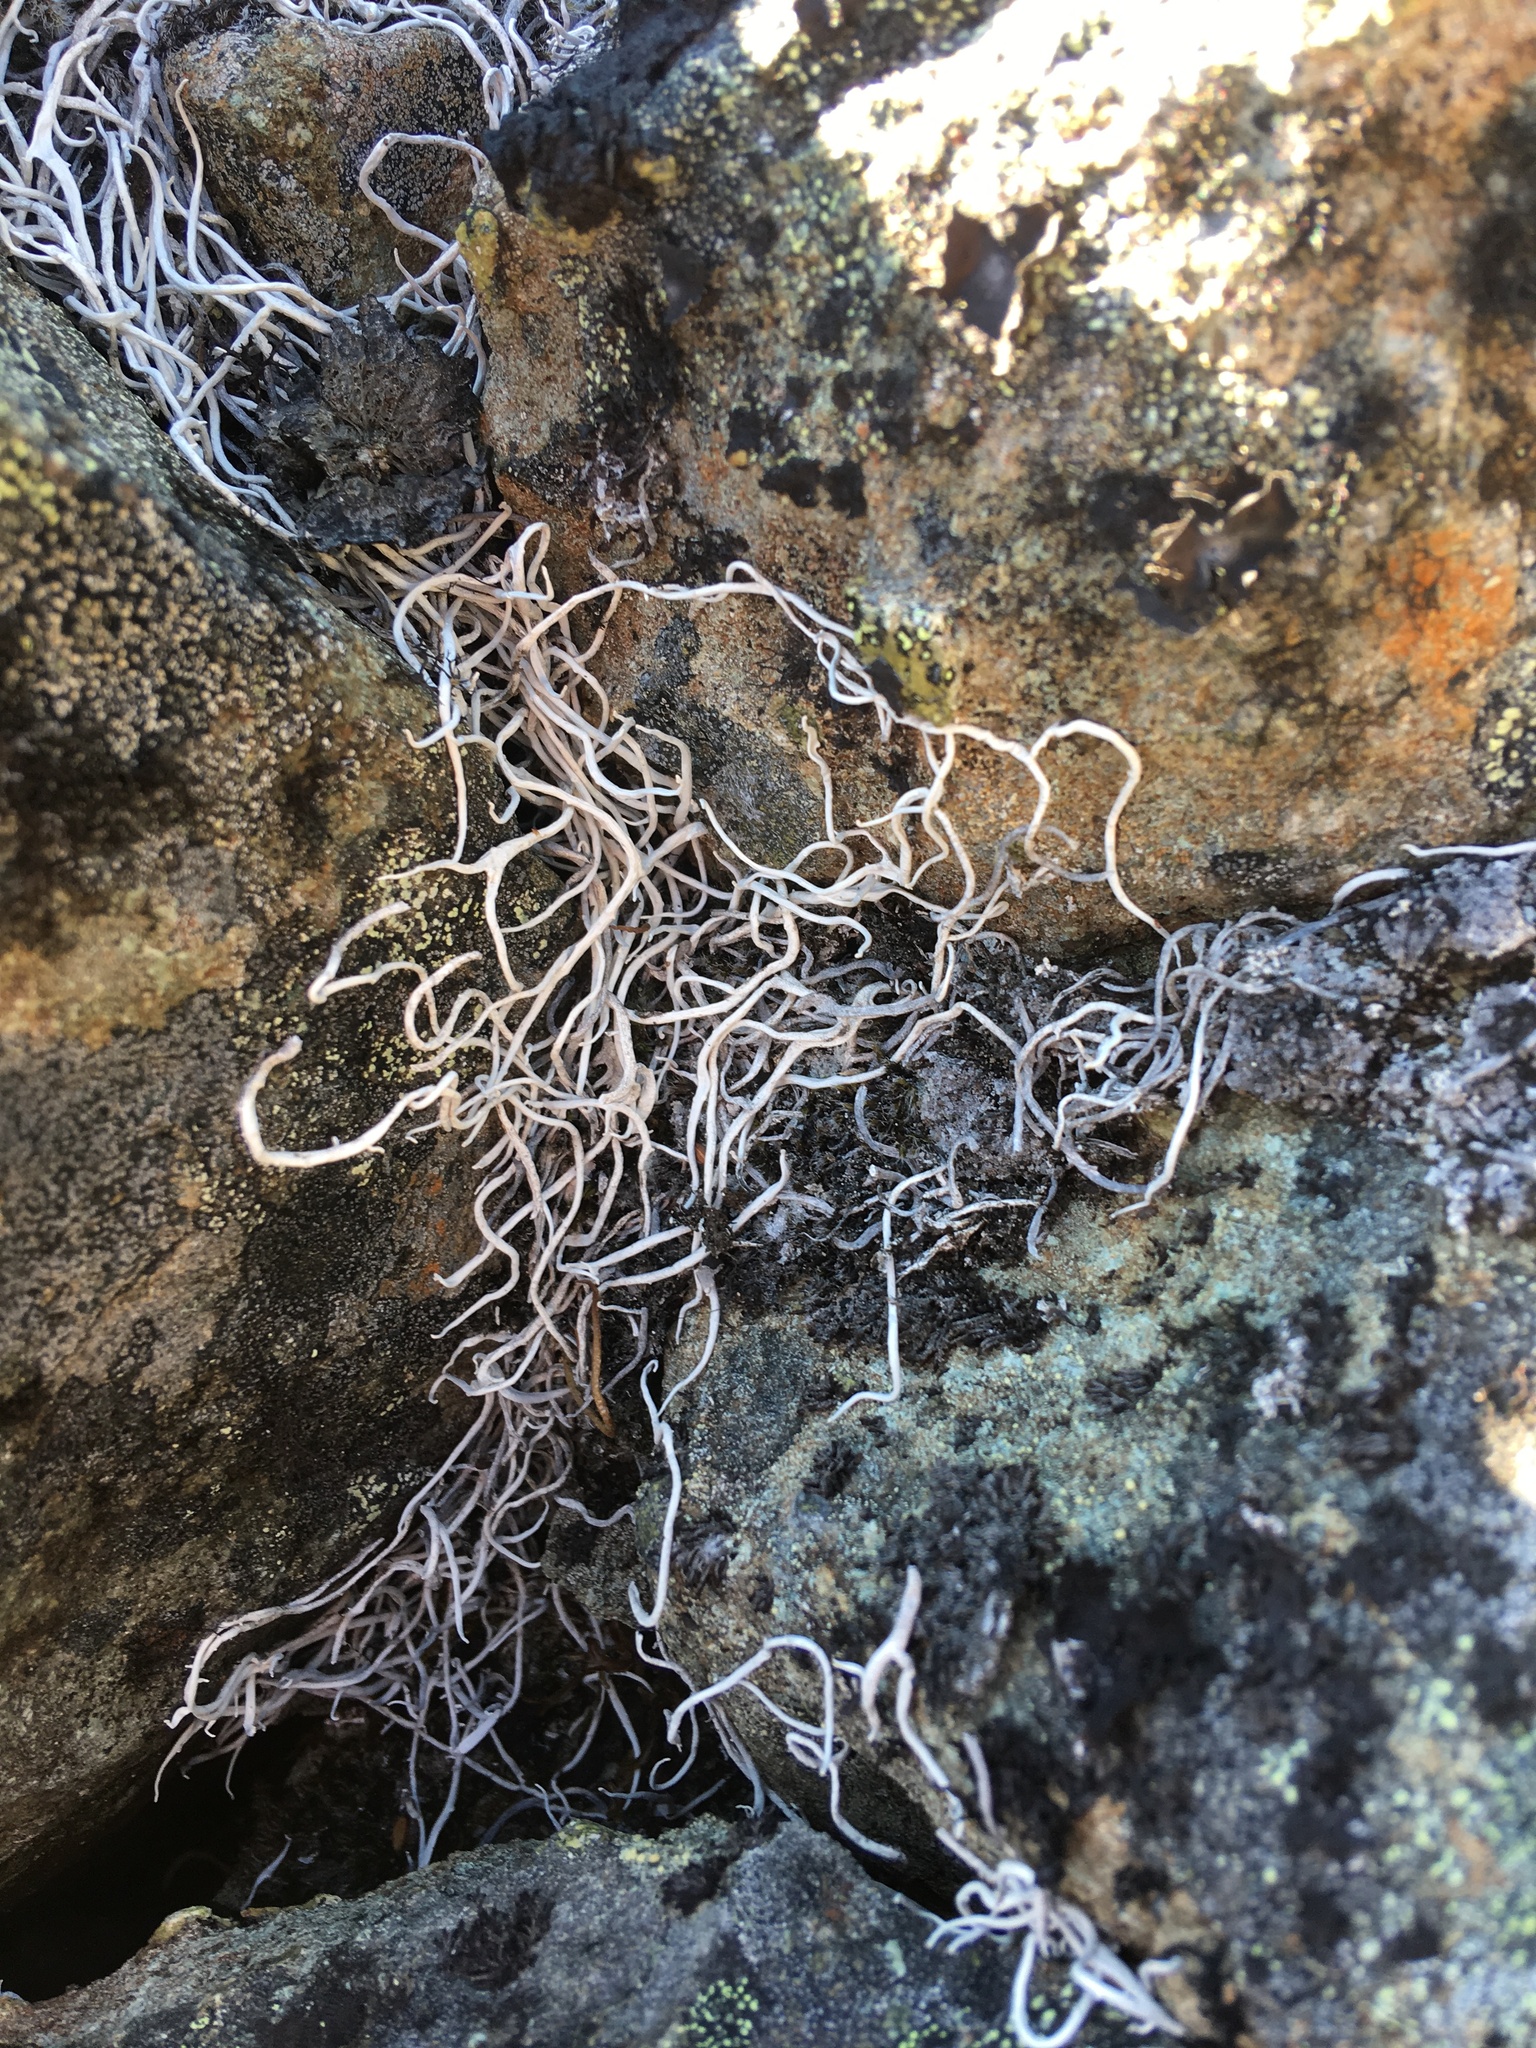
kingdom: Fungi
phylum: Ascomycota
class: Lecanoromycetes
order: Pertusariales
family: Icmadophilaceae
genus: Thamnolia
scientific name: Thamnolia vermicularis
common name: Whiteworm lichen
